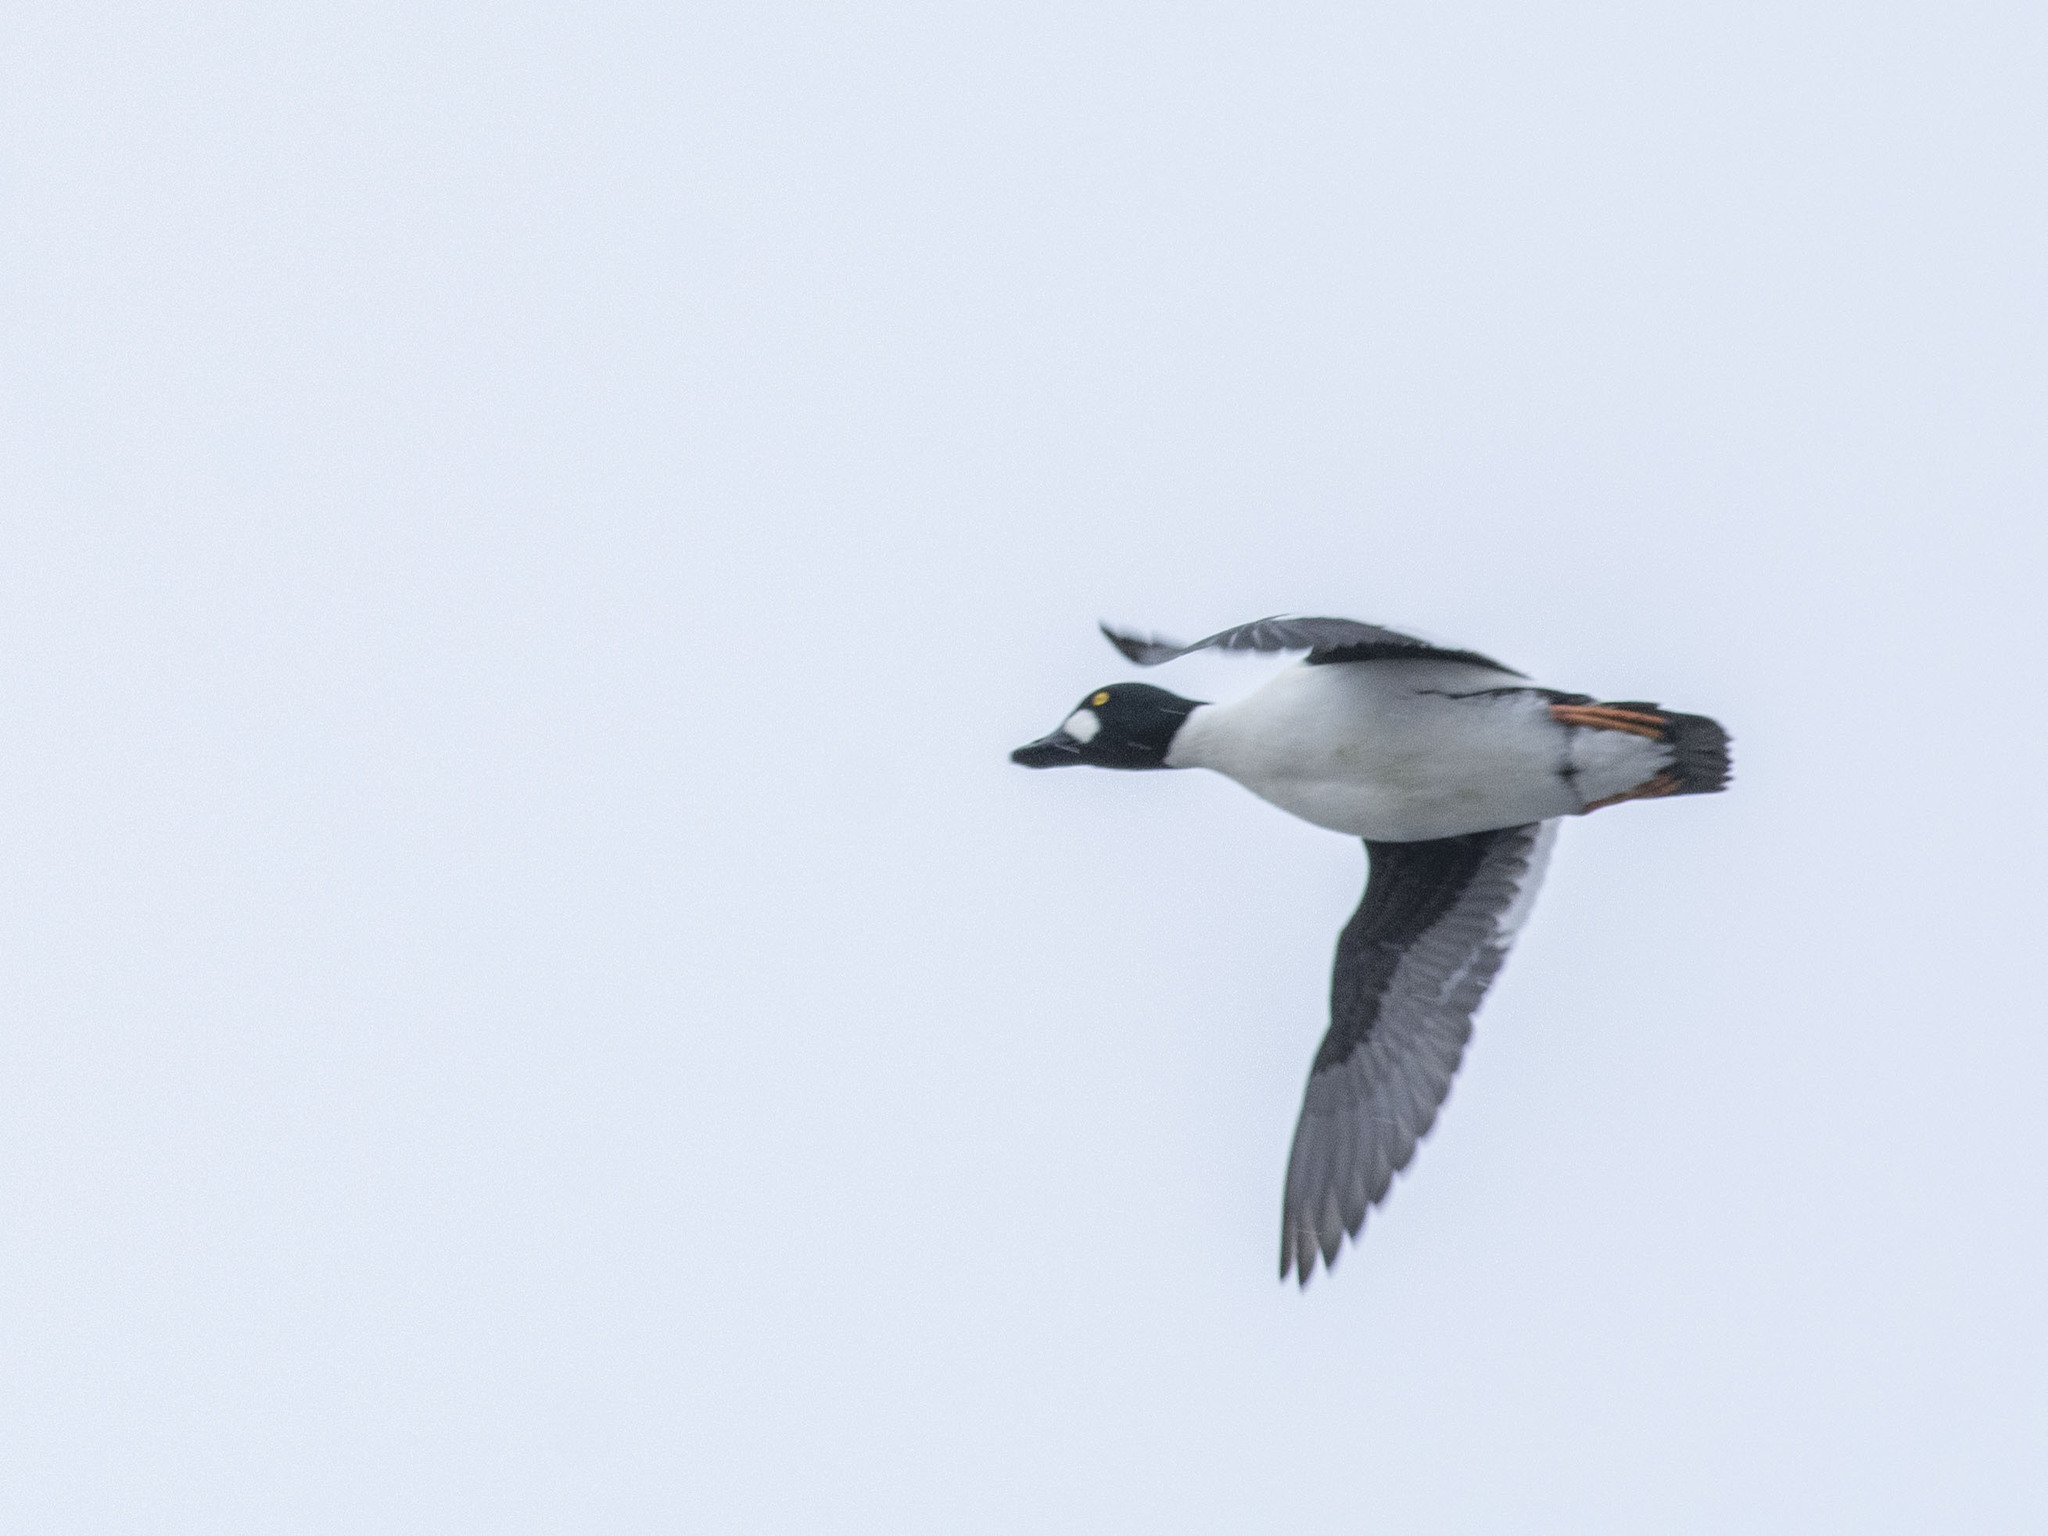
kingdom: Animalia
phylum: Chordata
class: Aves
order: Anseriformes
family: Anatidae
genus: Bucephala
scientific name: Bucephala clangula
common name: Common goldeneye
